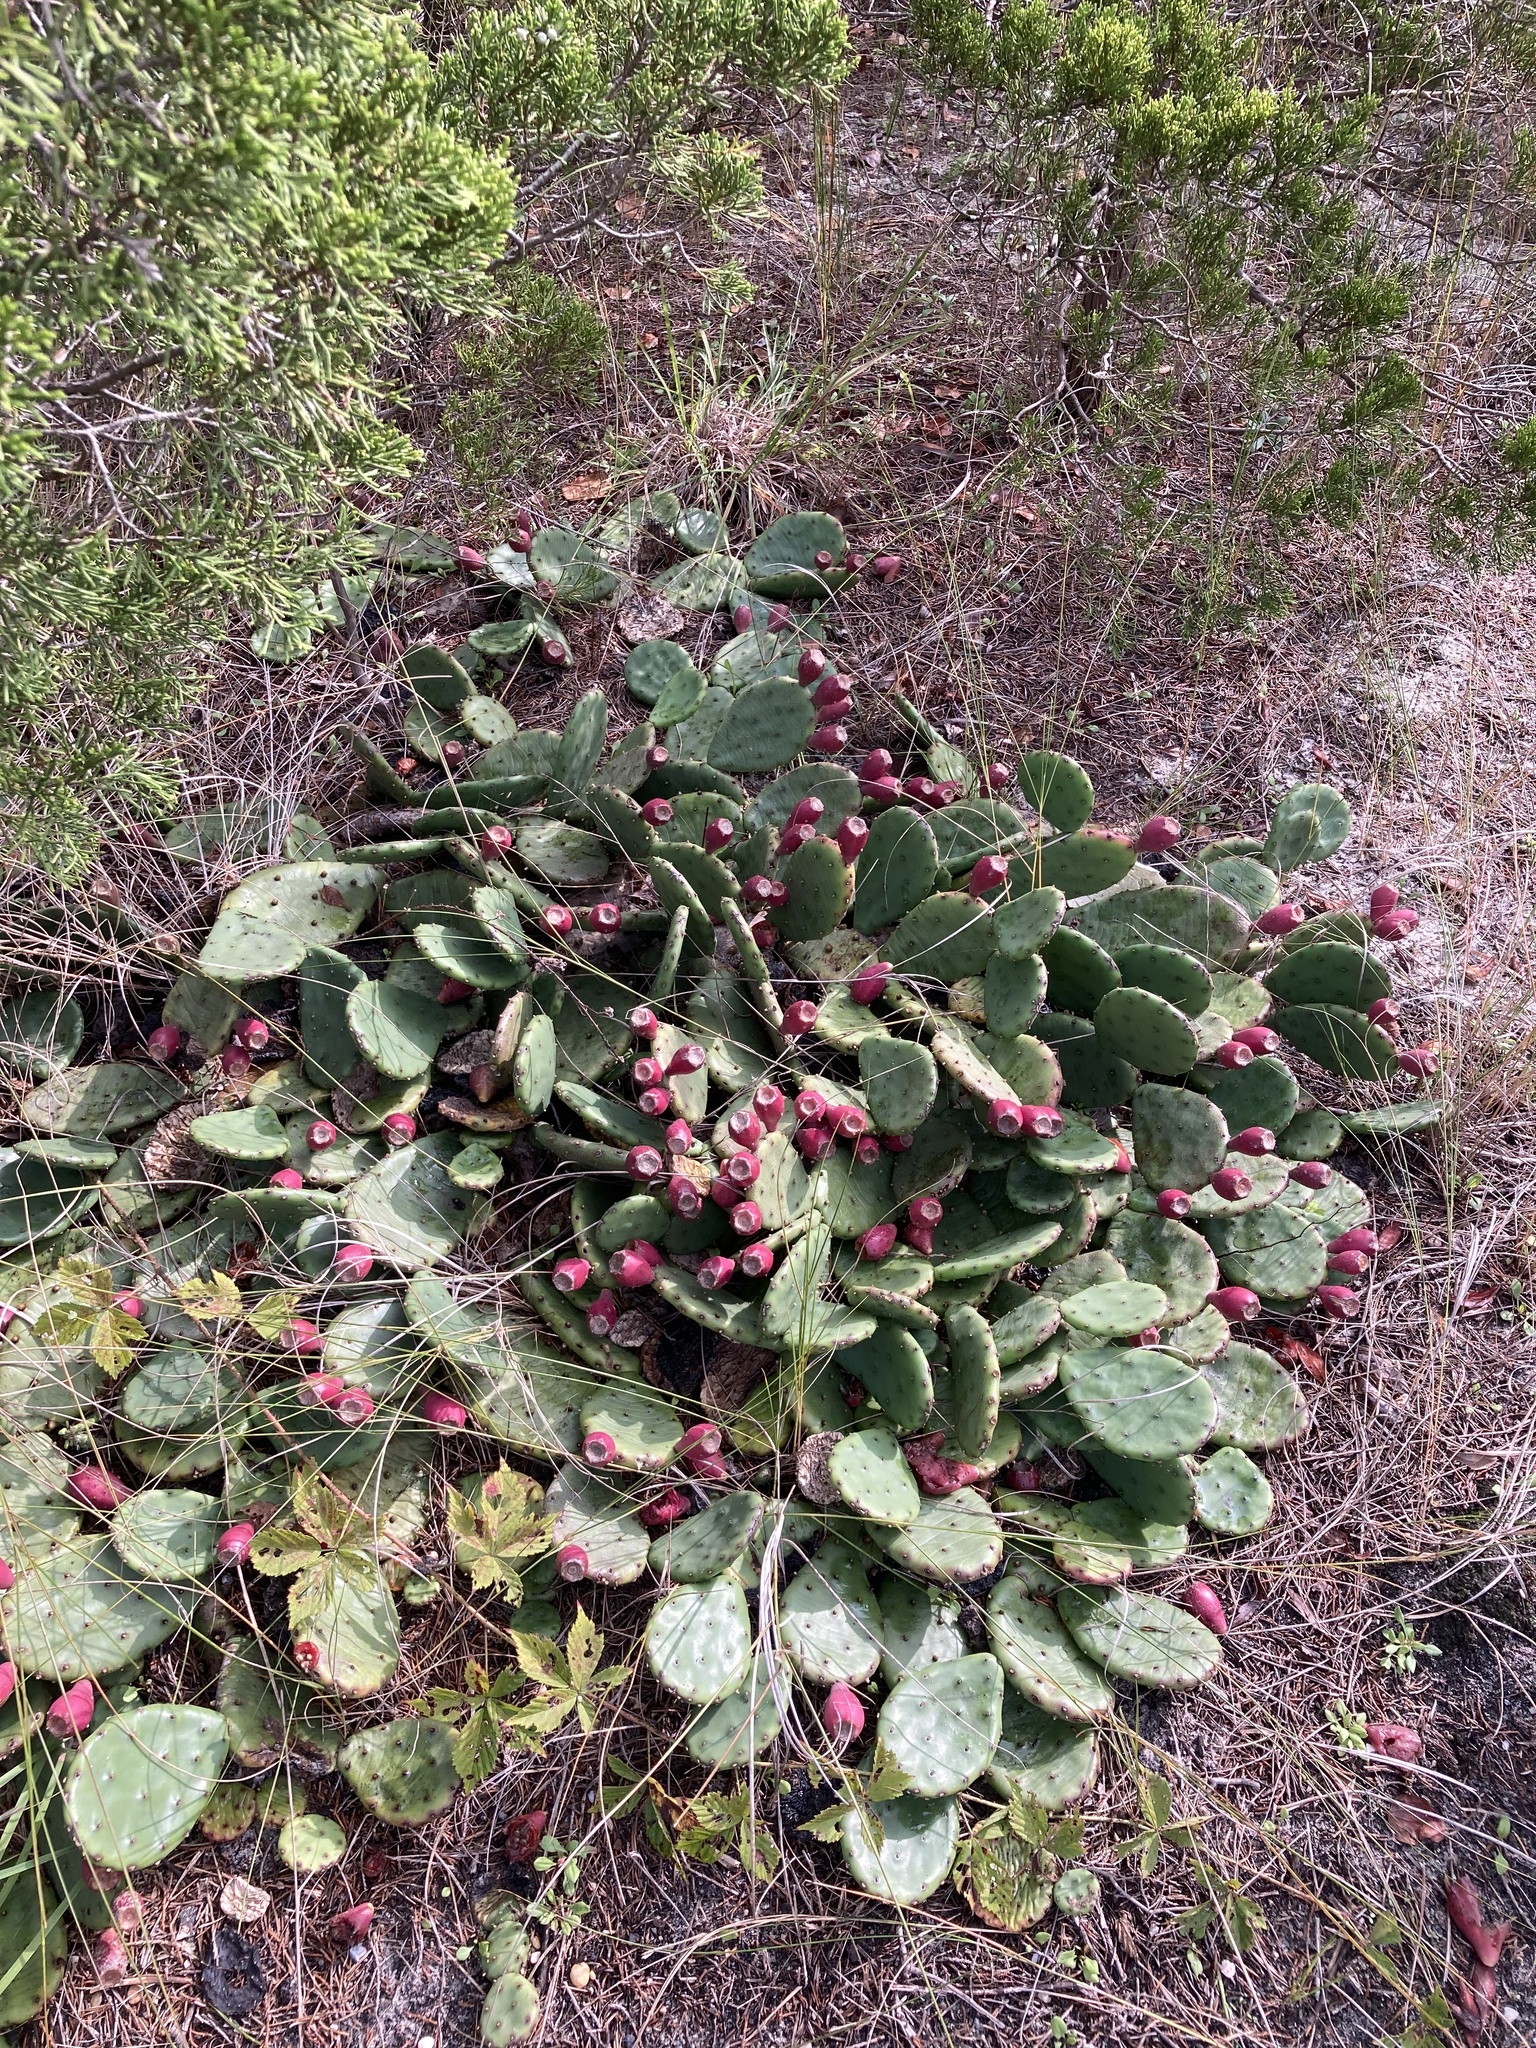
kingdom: Plantae
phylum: Tracheophyta
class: Magnoliopsida
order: Caryophyllales
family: Cactaceae
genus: Opuntia
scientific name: Opuntia humifusa
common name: Eastern prickly-pear
